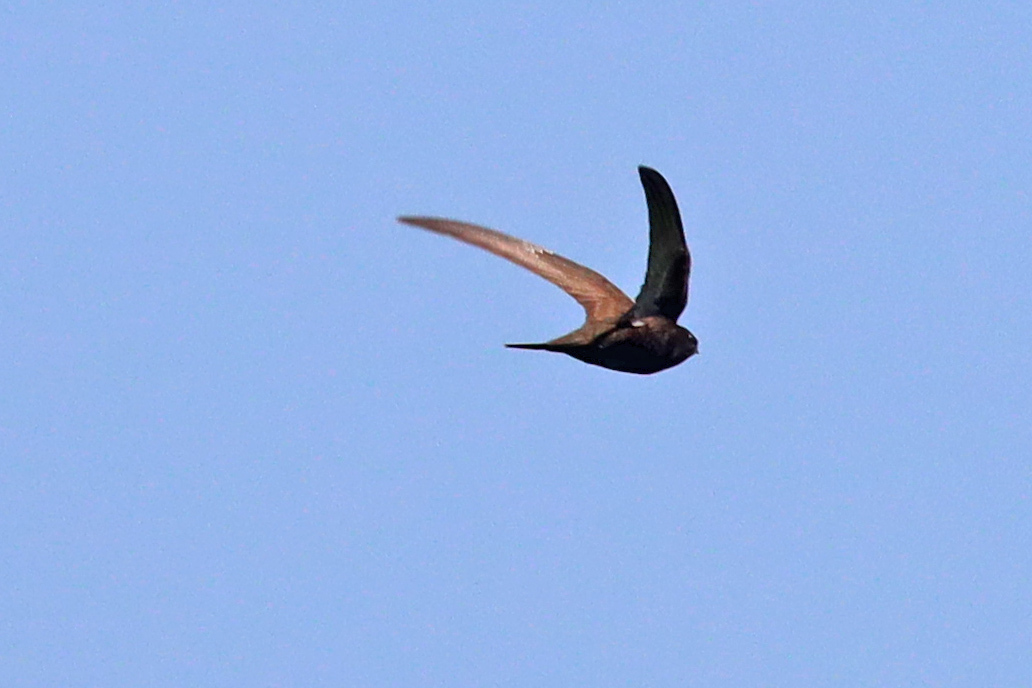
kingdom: Animalia
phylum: Chordata
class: Aves
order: Apodiformes
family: Apodidae
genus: Apus
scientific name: Apus apus
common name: Common swift
